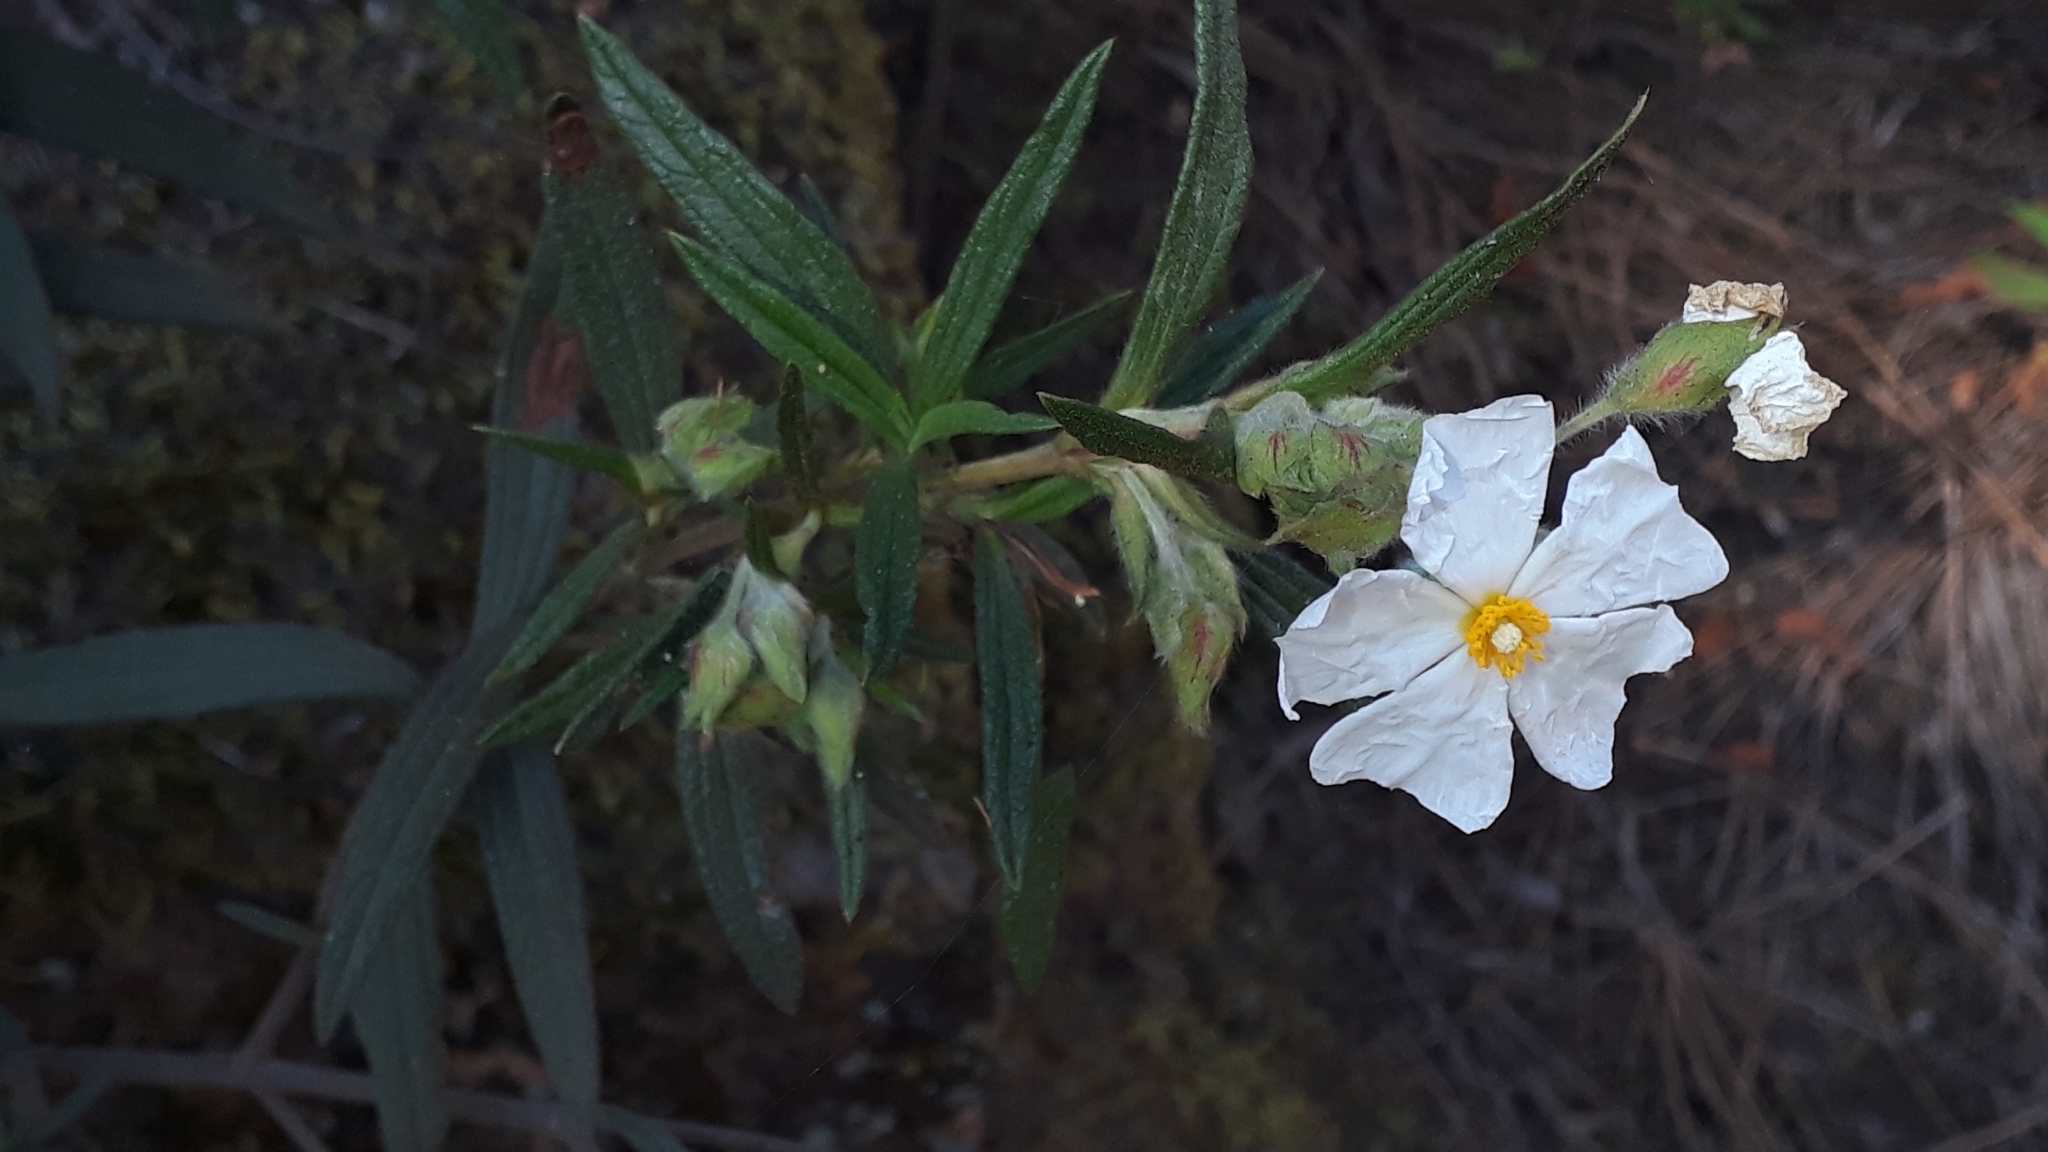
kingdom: Plantae
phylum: Tracheophyta
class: Magnoliopsida
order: Malvales
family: Cistaceae
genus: Cistus
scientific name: Cistus monspeliensis
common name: Montpelier cistus
